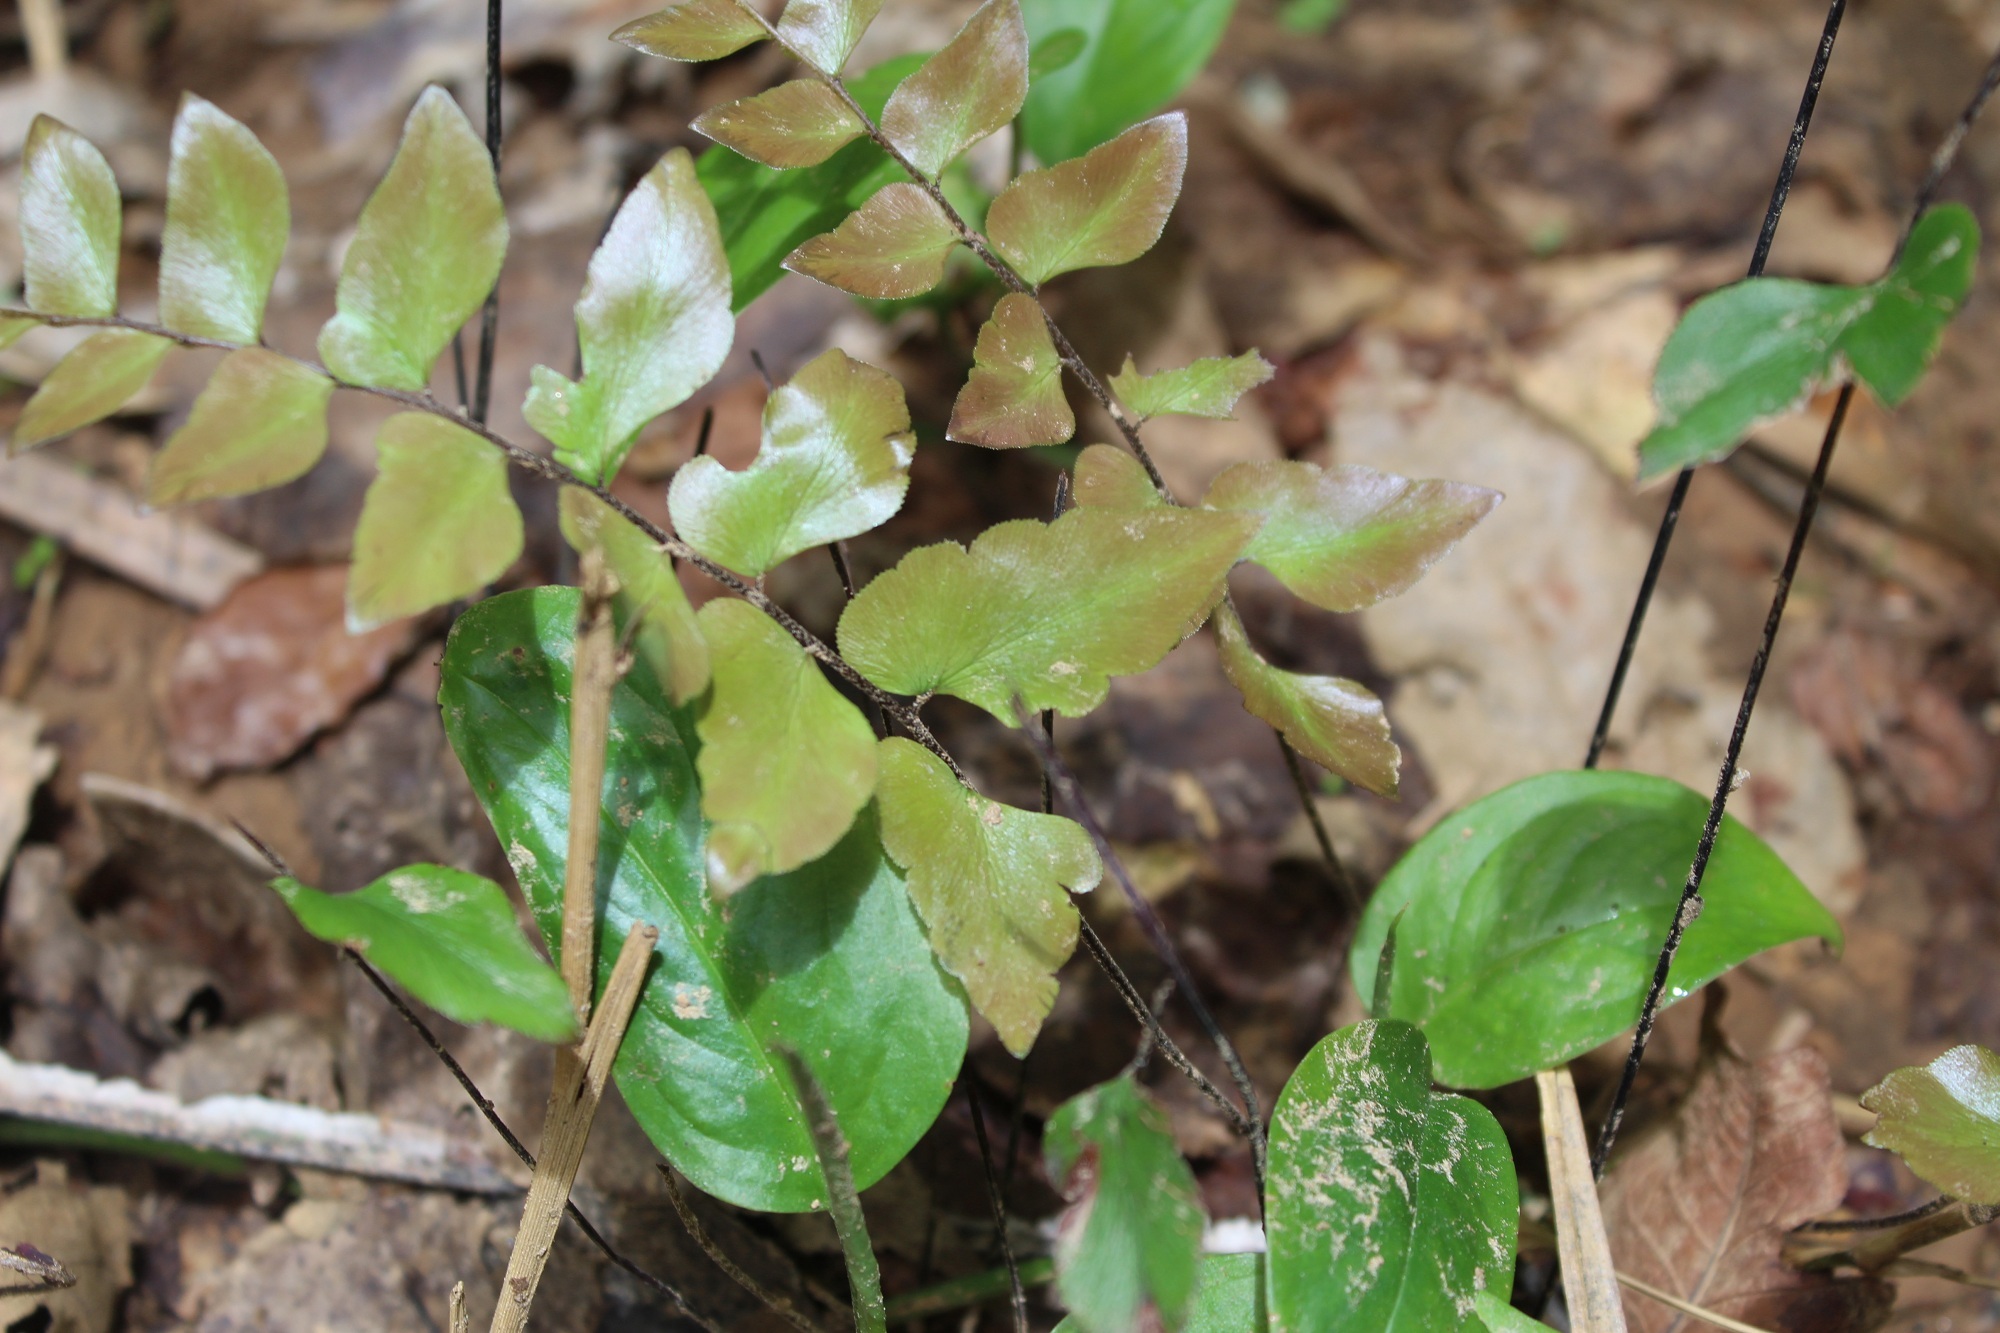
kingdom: Plantae
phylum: Tracheophyta
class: Polypodiopsida
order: Polypodiales
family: Pteridaceae
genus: Adiantum
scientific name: Adiantum petiolatum
